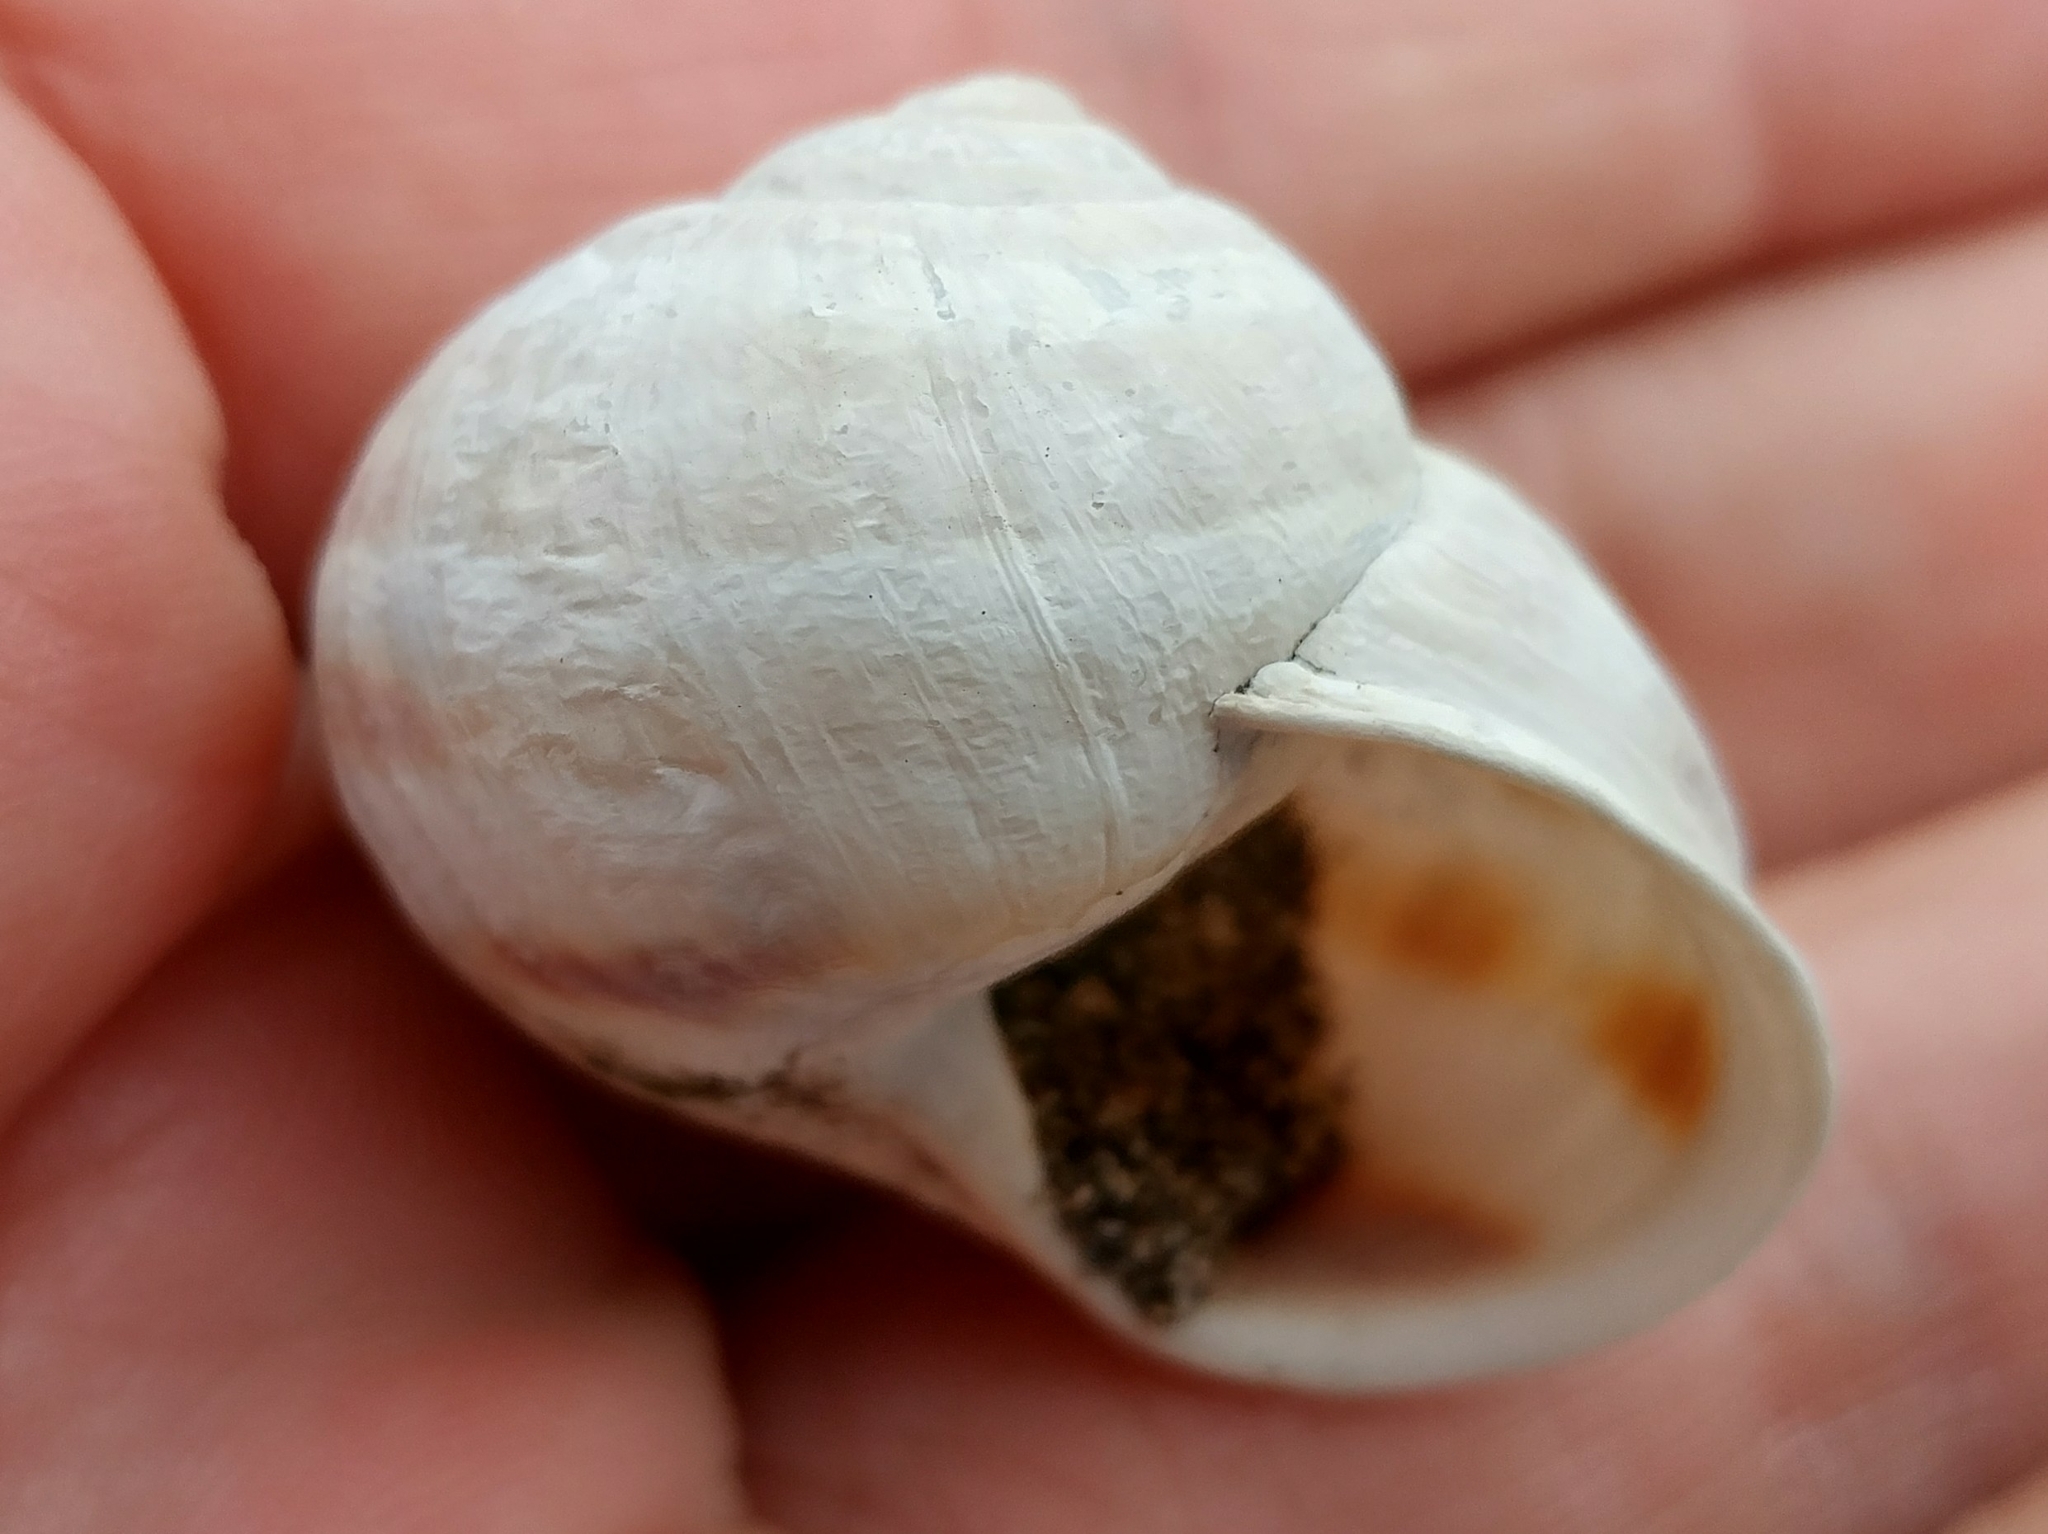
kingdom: Animalia
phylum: Mollusca
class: Gastropoda
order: Stylommatophora
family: Helicidae
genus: Cornu
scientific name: Cornu aspersum
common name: Brown garden snail
